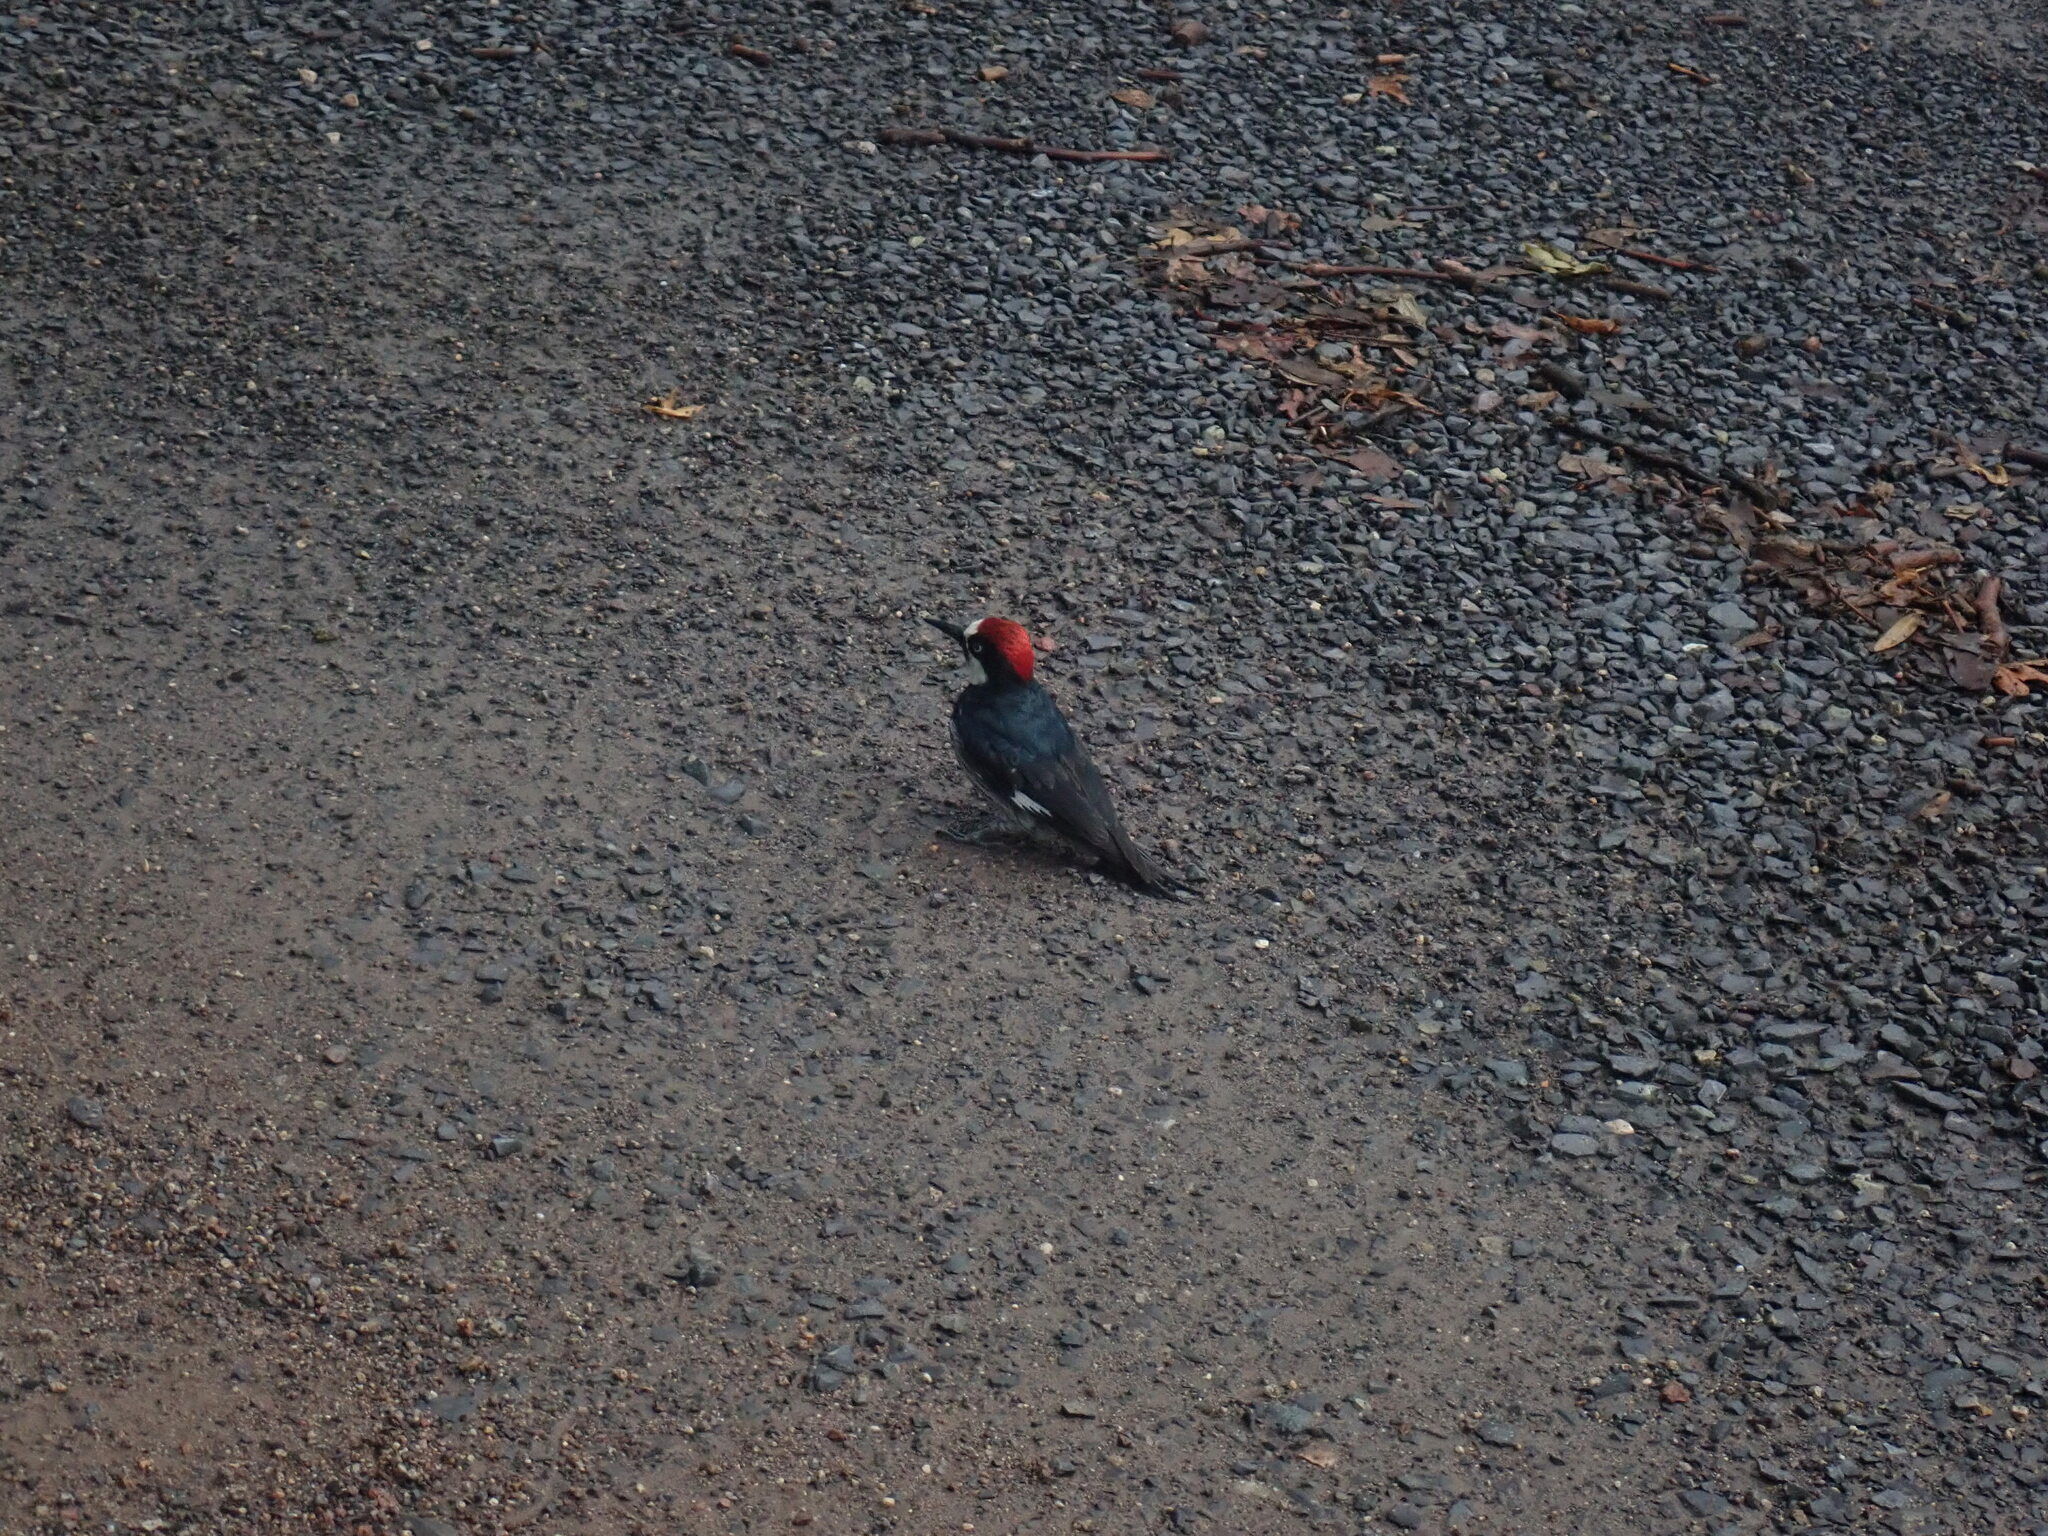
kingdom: Animalia
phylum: Chordata
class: Aves
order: Piciformes
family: Picidae
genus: Melanerpes
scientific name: Melanerpes formicivorus
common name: Acorn woodpecker
